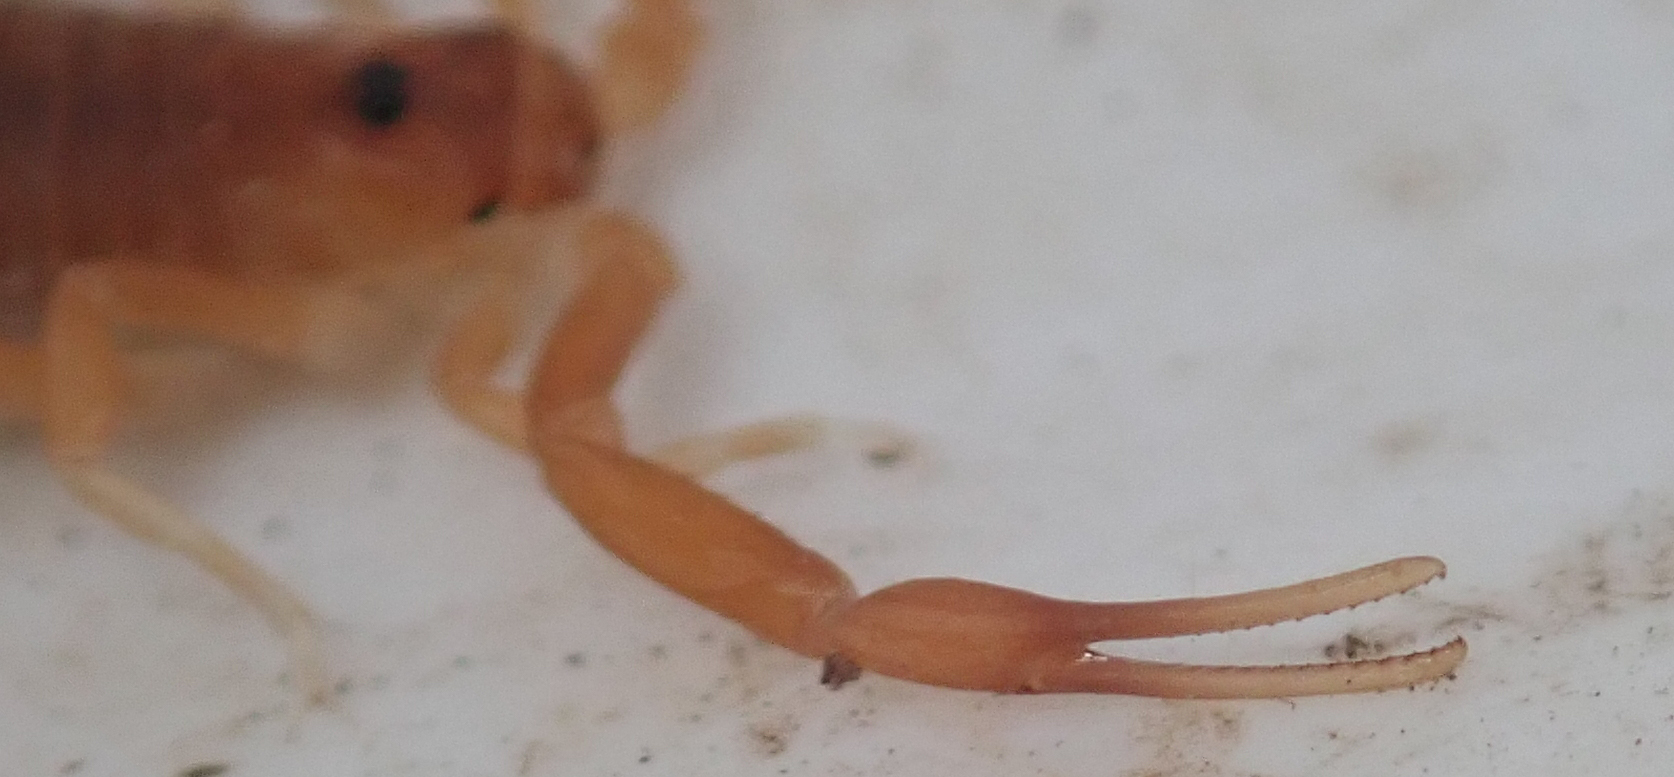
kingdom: Animalia
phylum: Arthropoda
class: Arachnida
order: Scorpiones
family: Buthidae
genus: Parabuthus
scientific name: Parabuthus granulatus
